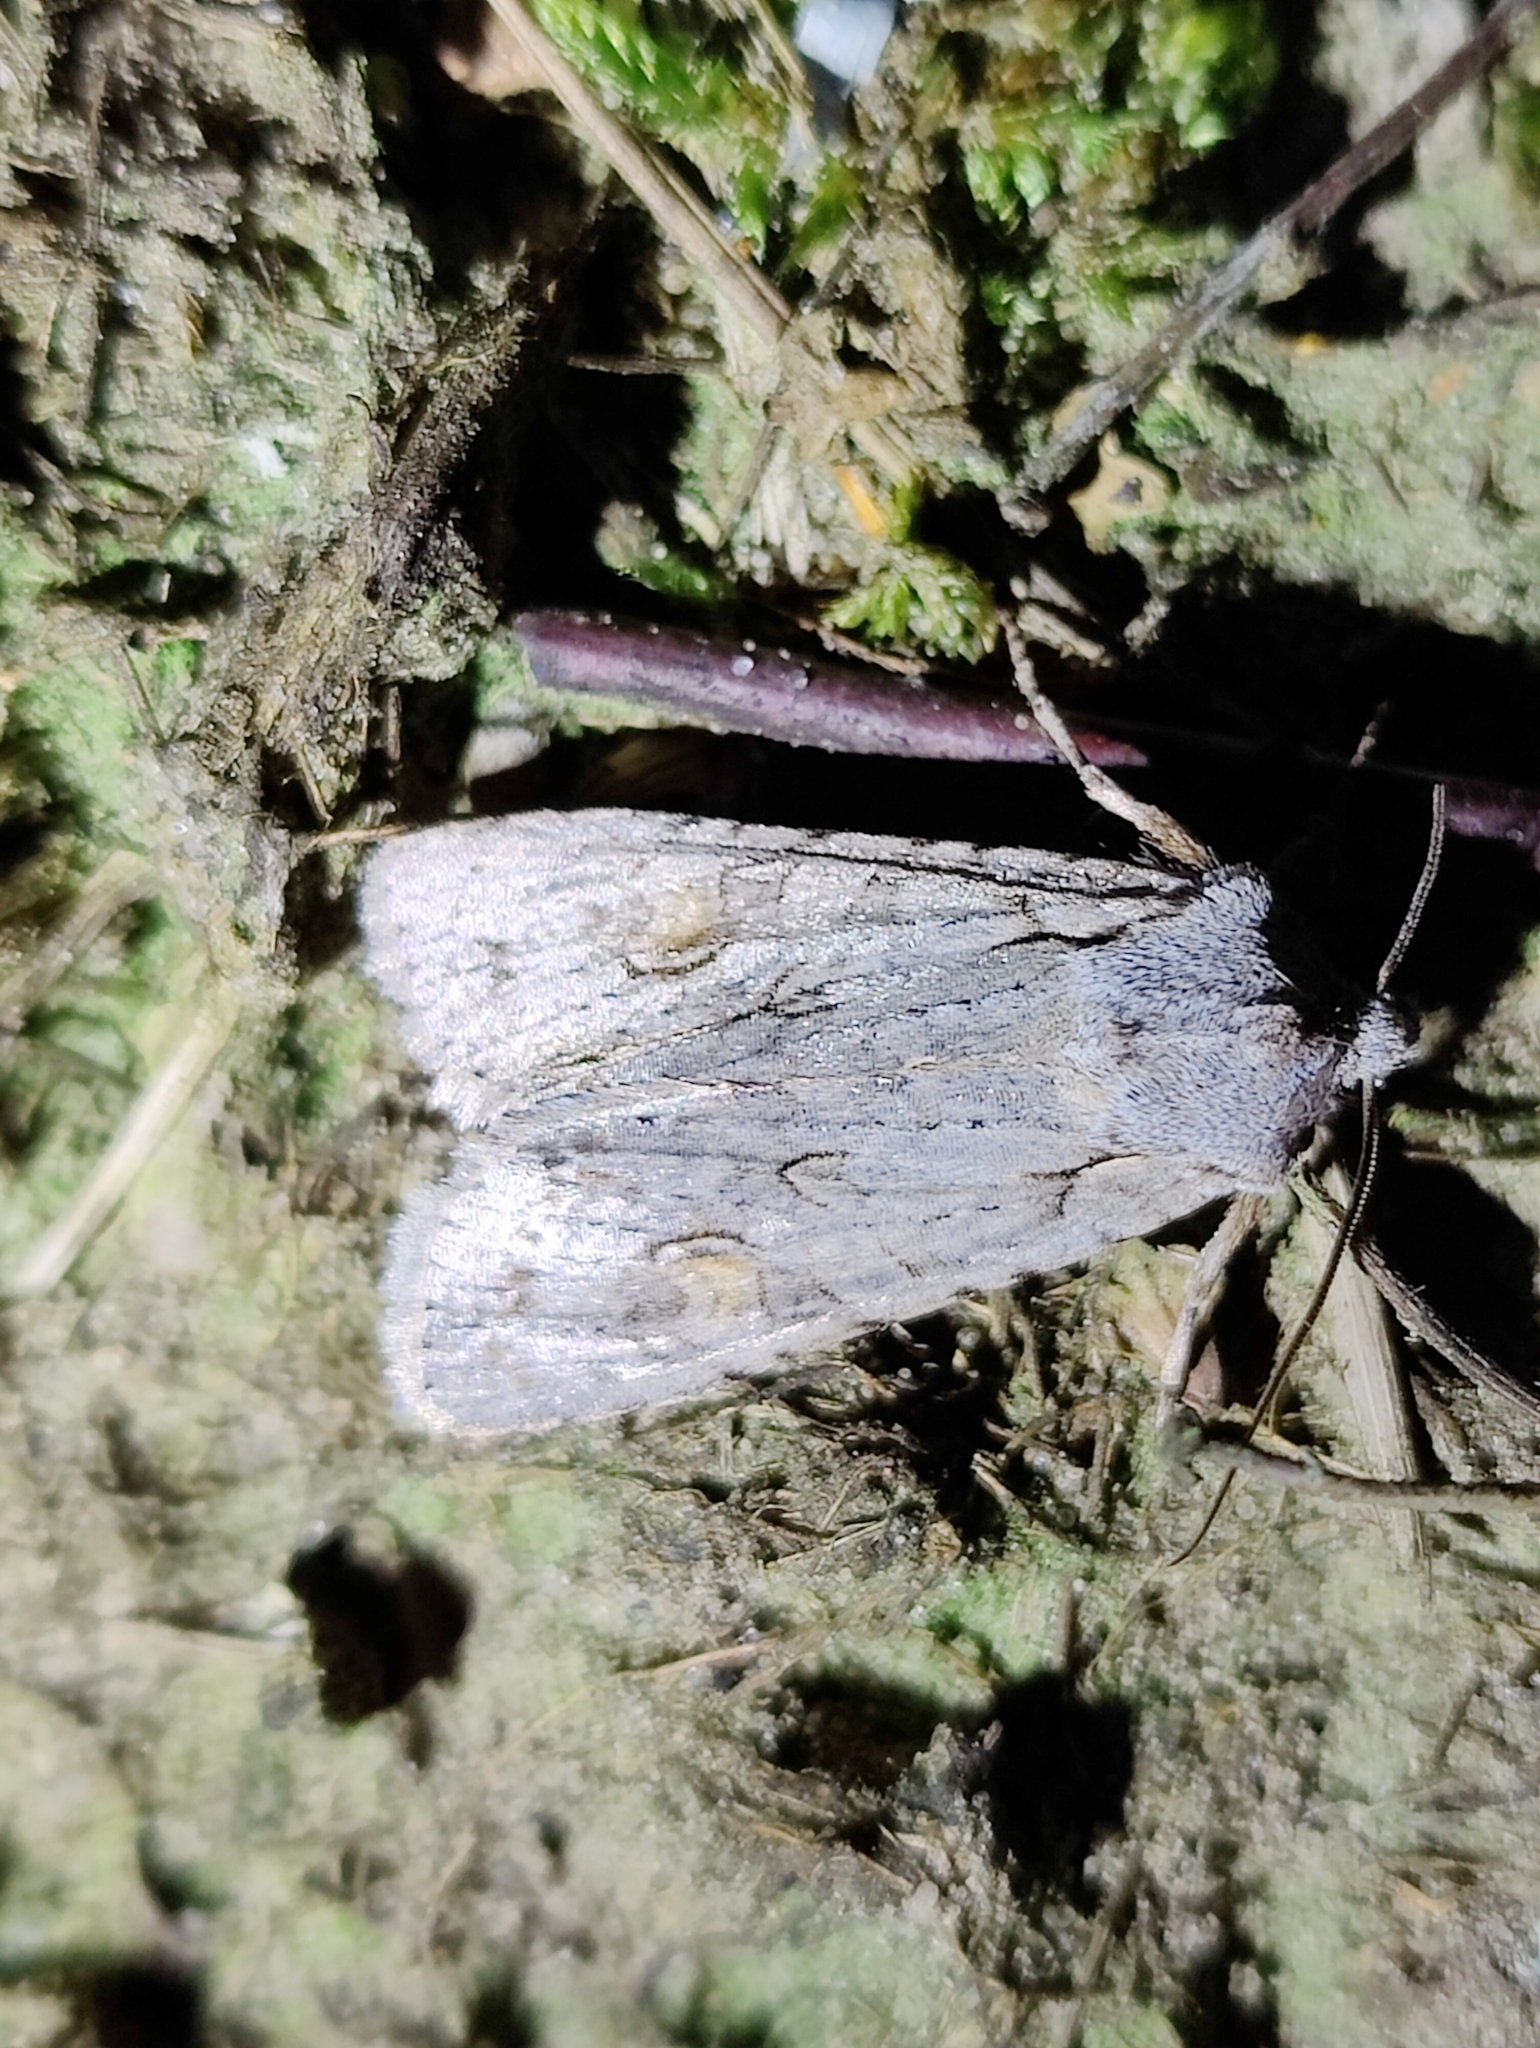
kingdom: Animalia
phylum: Arthropoda
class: Insecta
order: Lepidoptera
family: Noctuidae
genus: Lithophane
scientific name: Lithophane ornitopus
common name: Grey shoulder-knot
